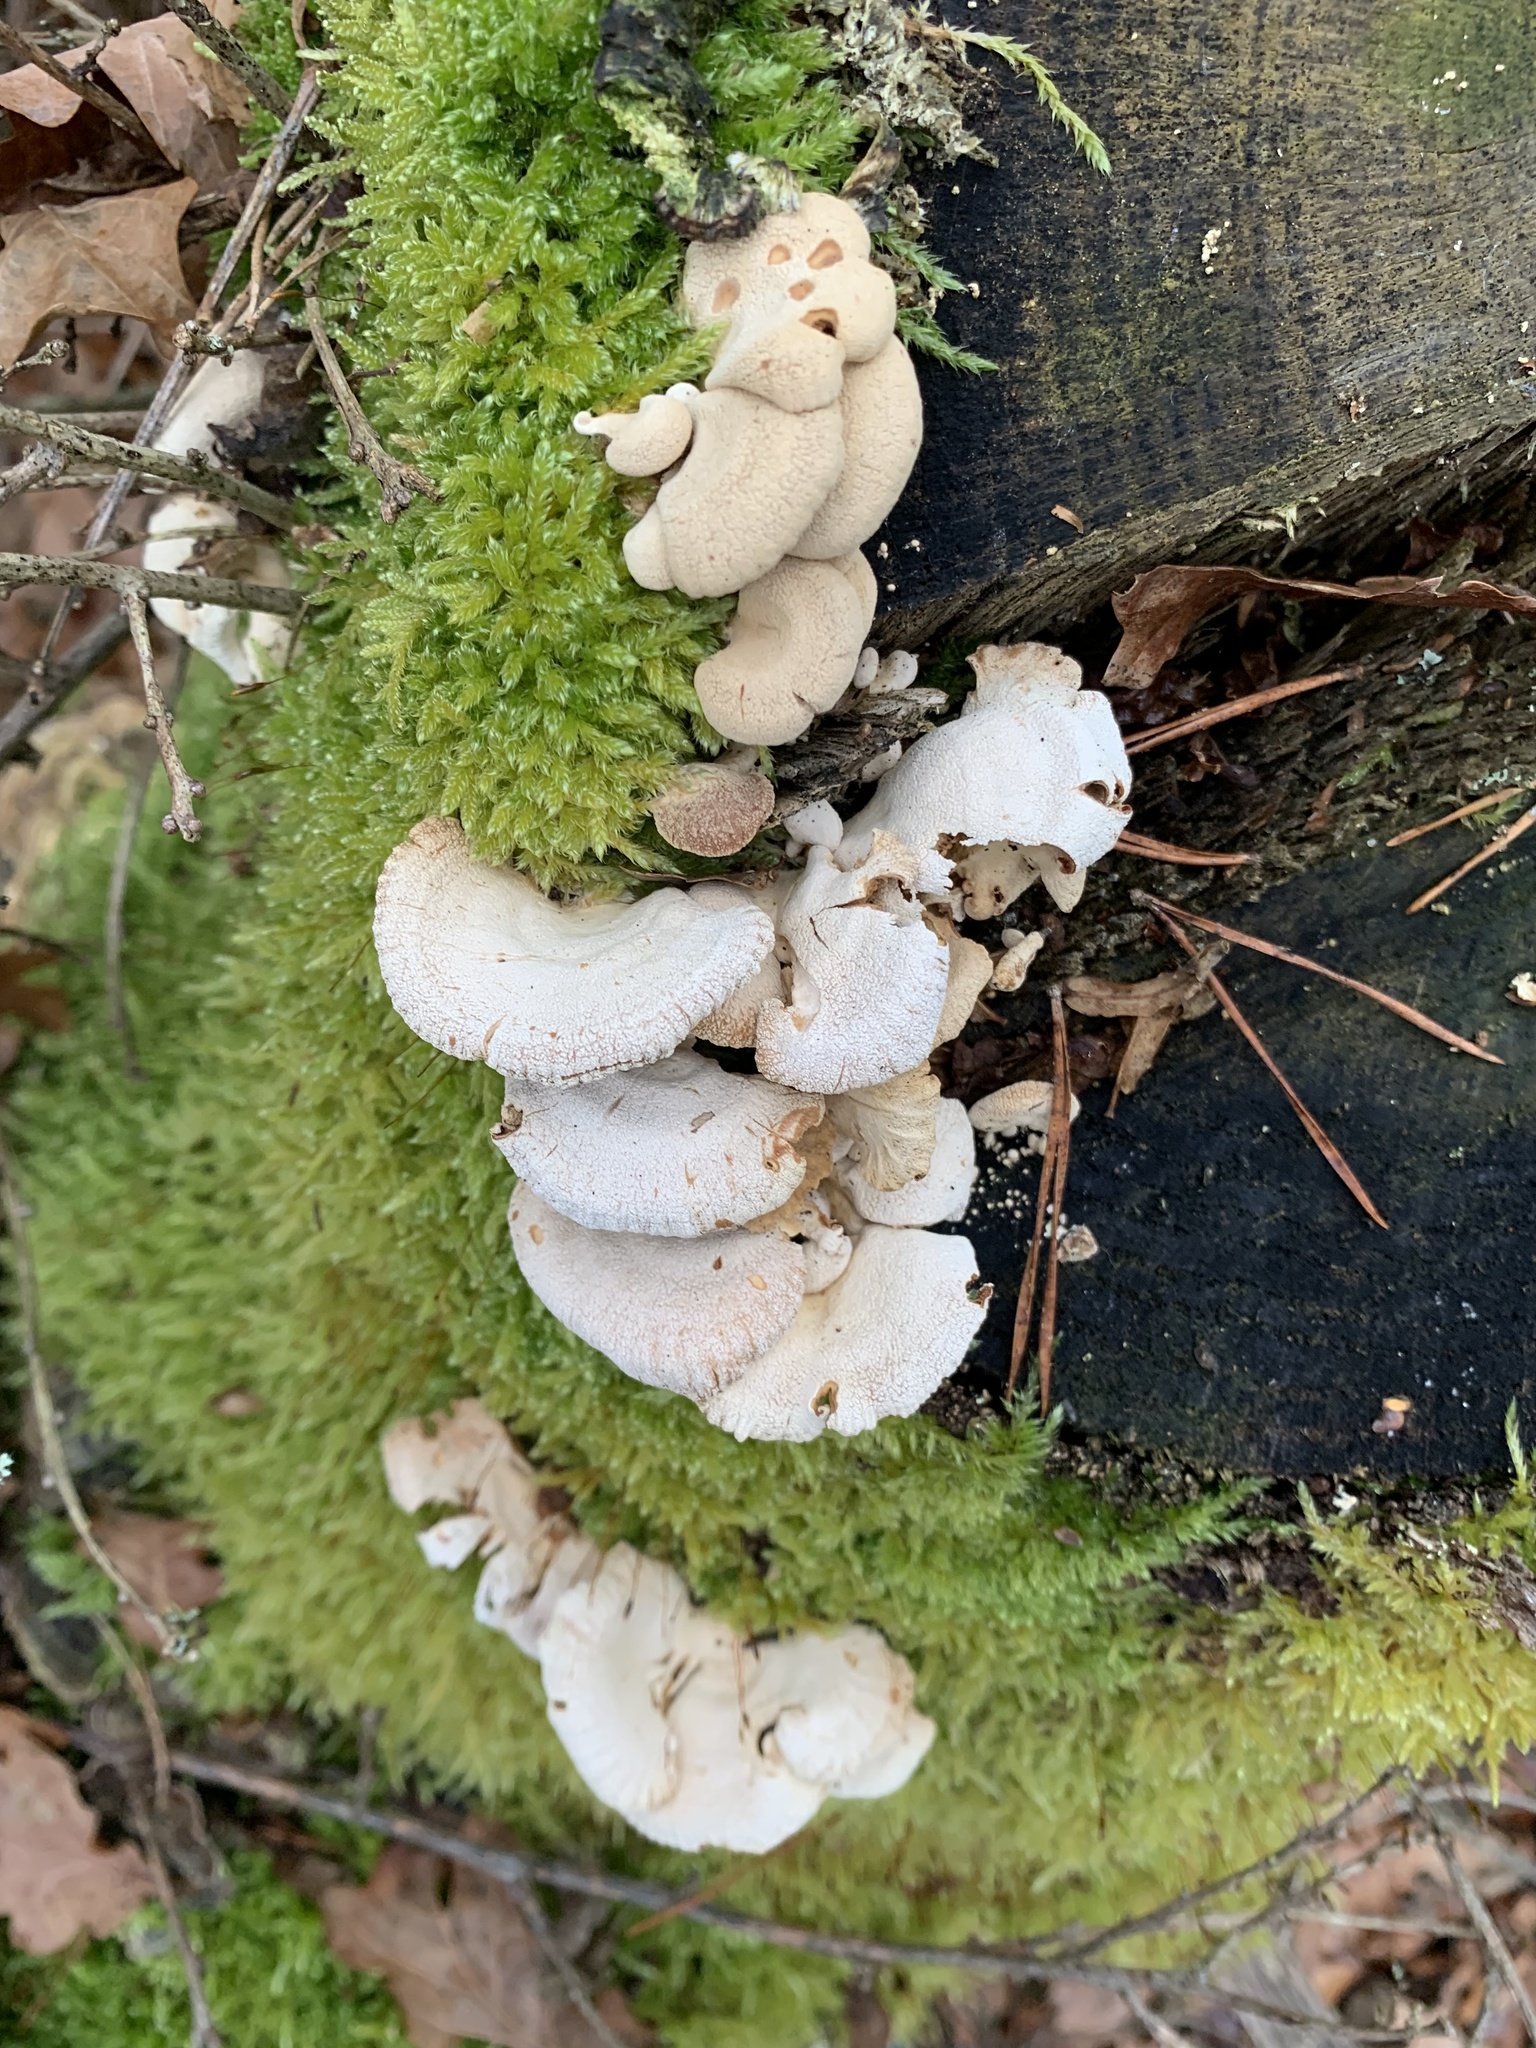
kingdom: Fungi
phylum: Basidiomycota
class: Agaricomycetes
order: Agaricales
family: Mycenaceae
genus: Panellus
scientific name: Panellus stipticus
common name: Bitter oysterling
